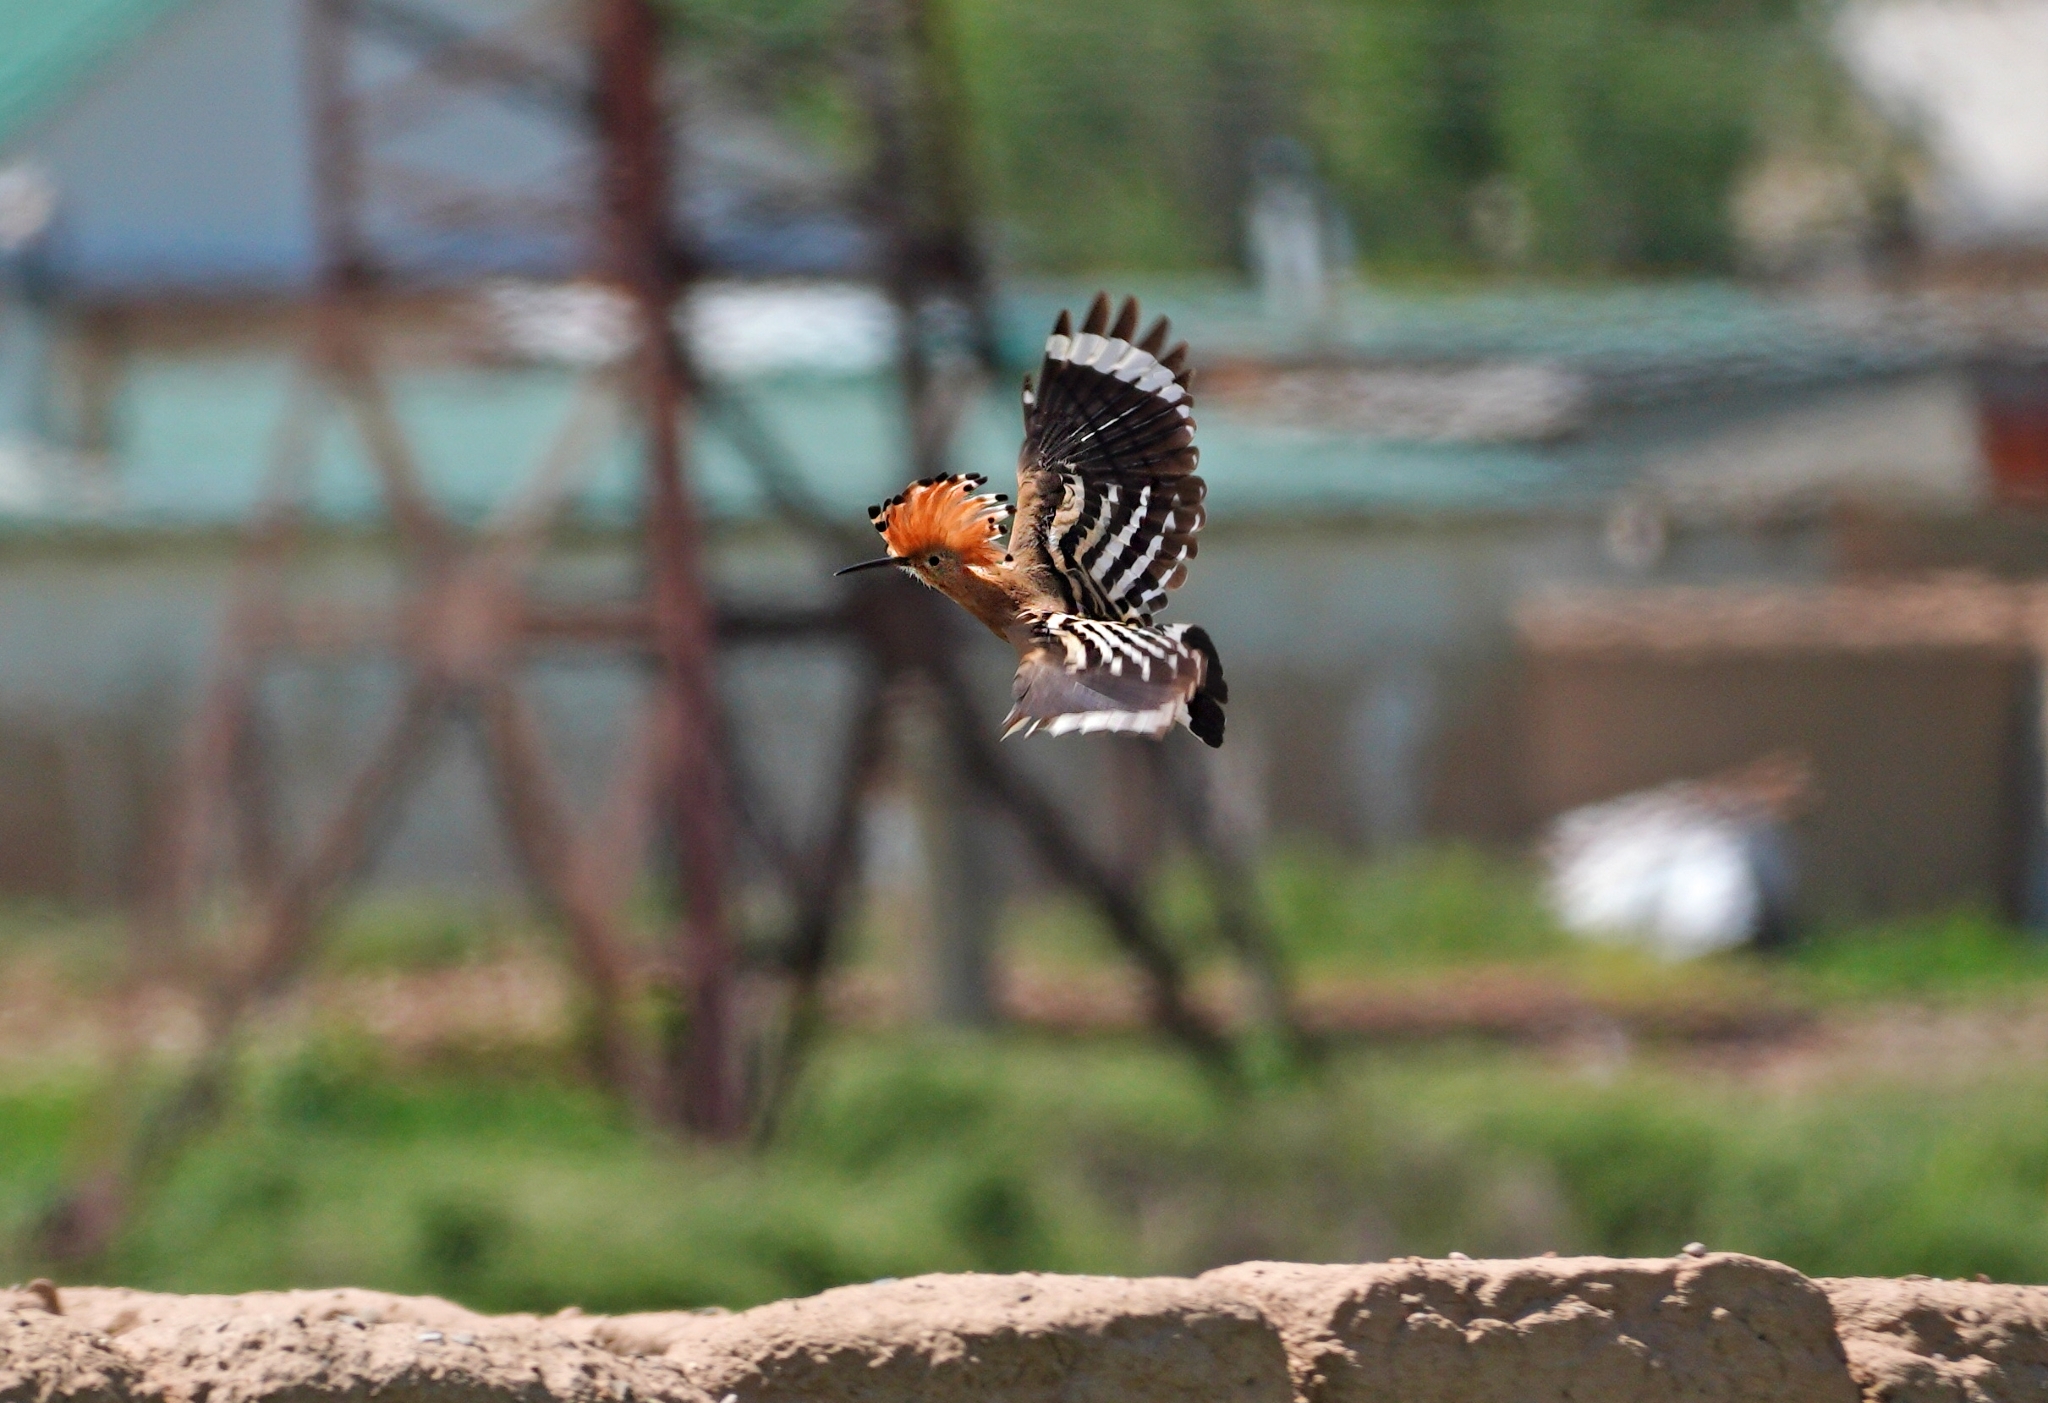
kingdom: Animalia
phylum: Chordata
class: Aves
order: Bucerotiformes
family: Upupidae
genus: Upupa
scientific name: Upupa epops
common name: Eurasian hoopoe
